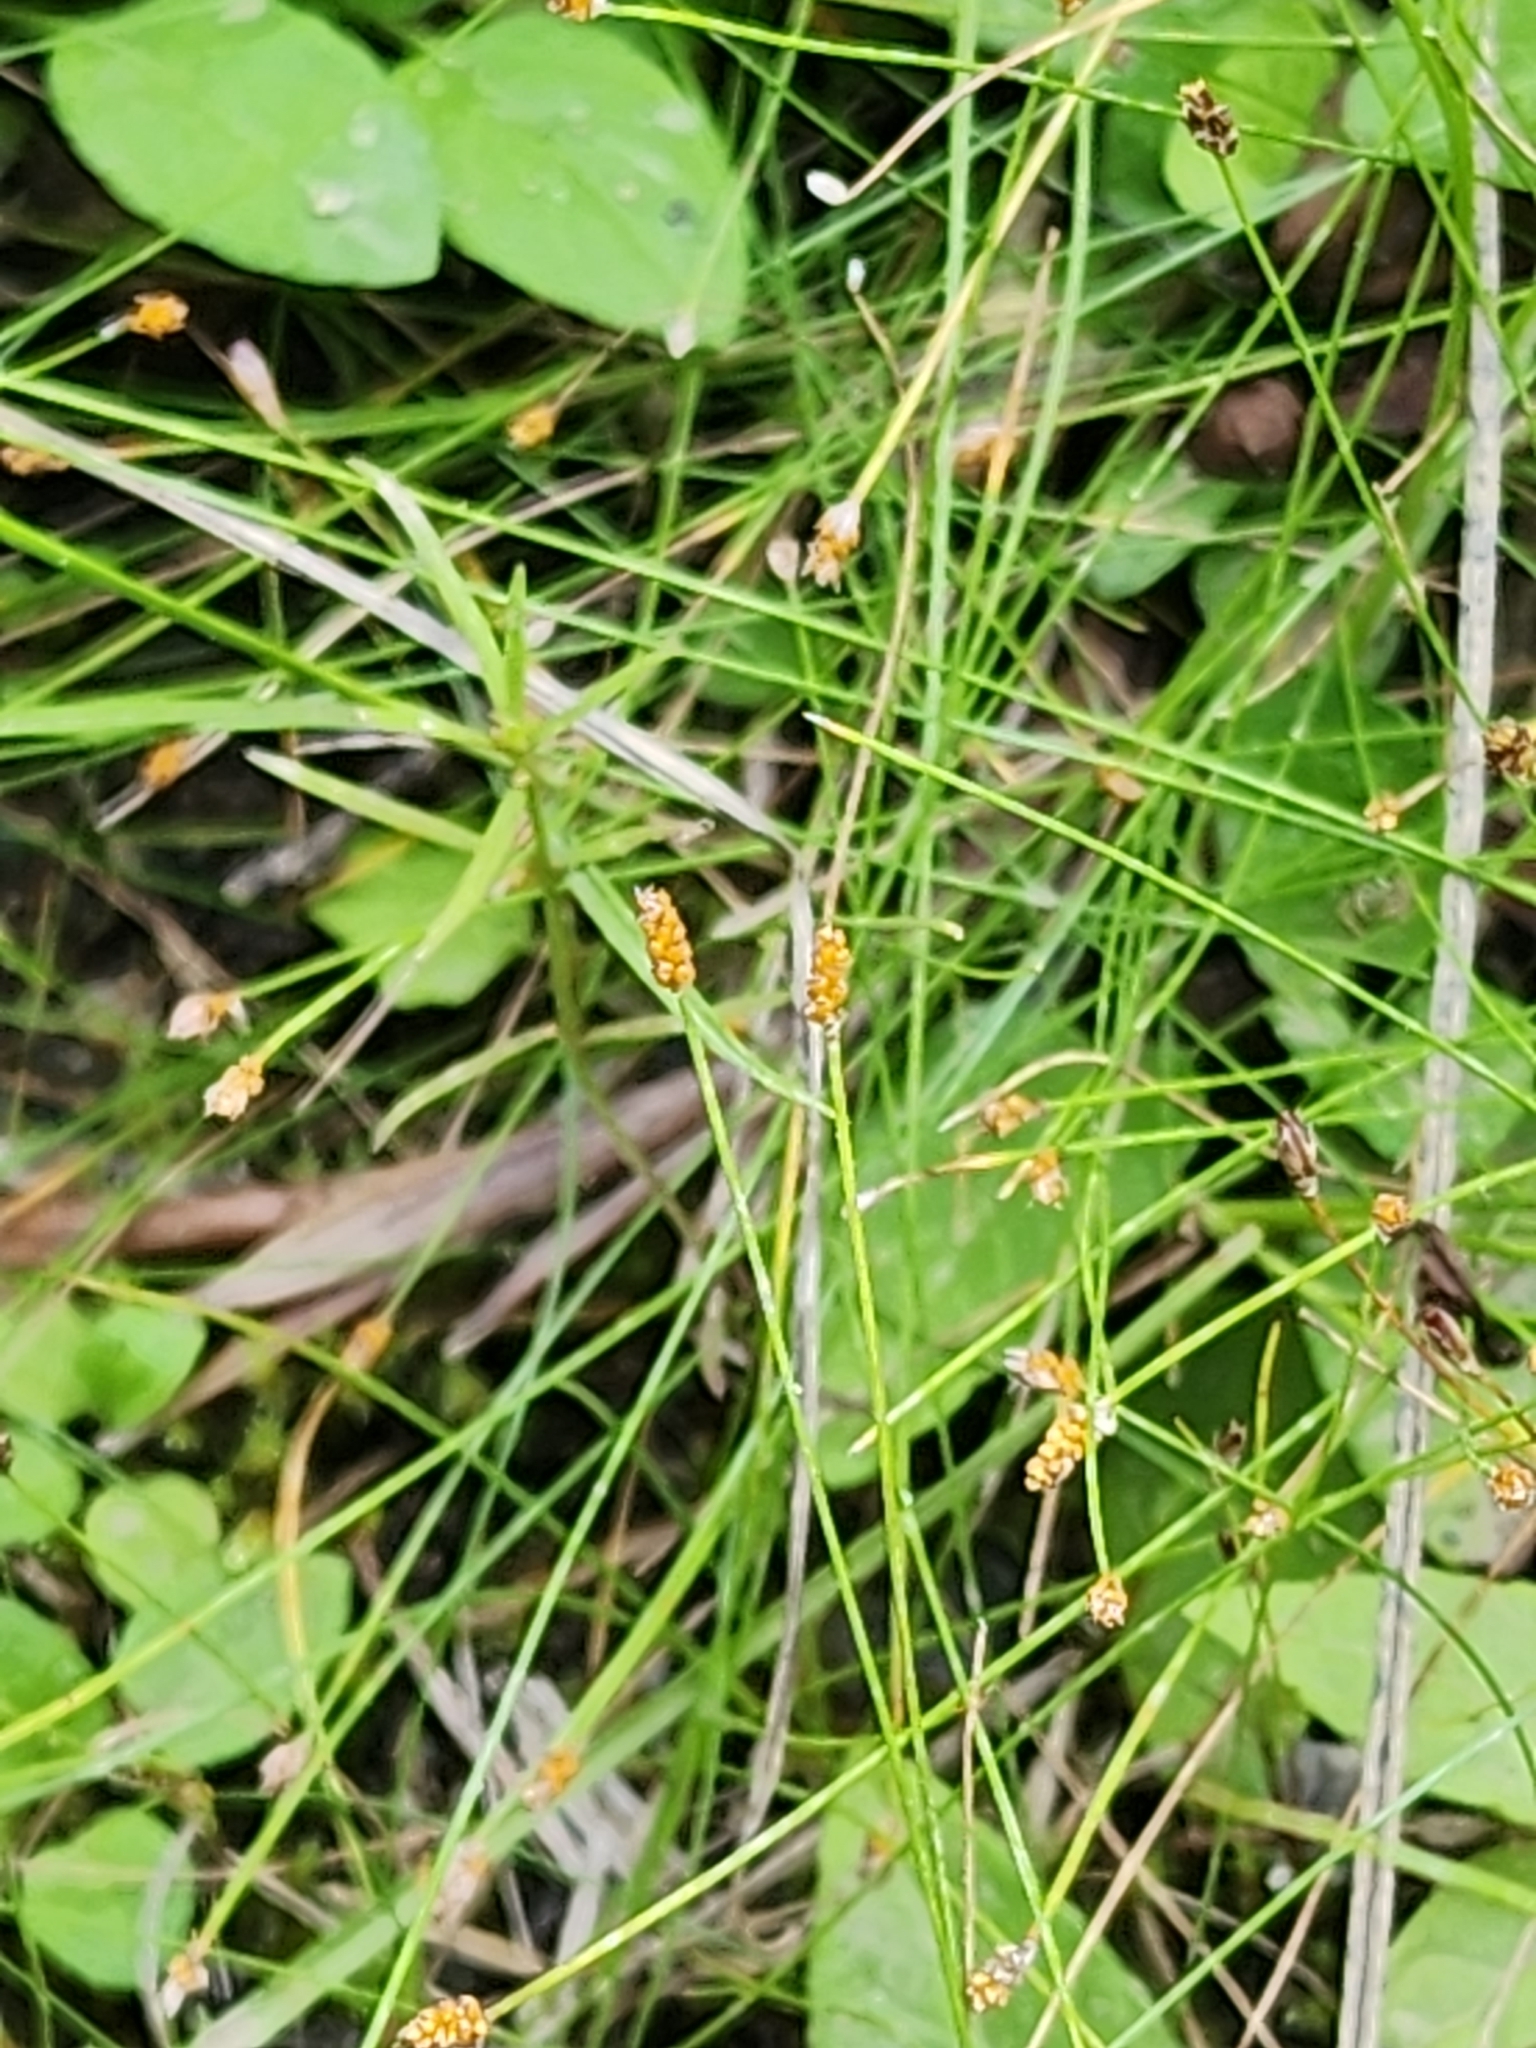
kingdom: Plantae
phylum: Tracheophyta
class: Liliopsida
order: Poales
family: Cyperaceae
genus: Eleocharis
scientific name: Eleocharis nitida
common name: Neat spikerush
